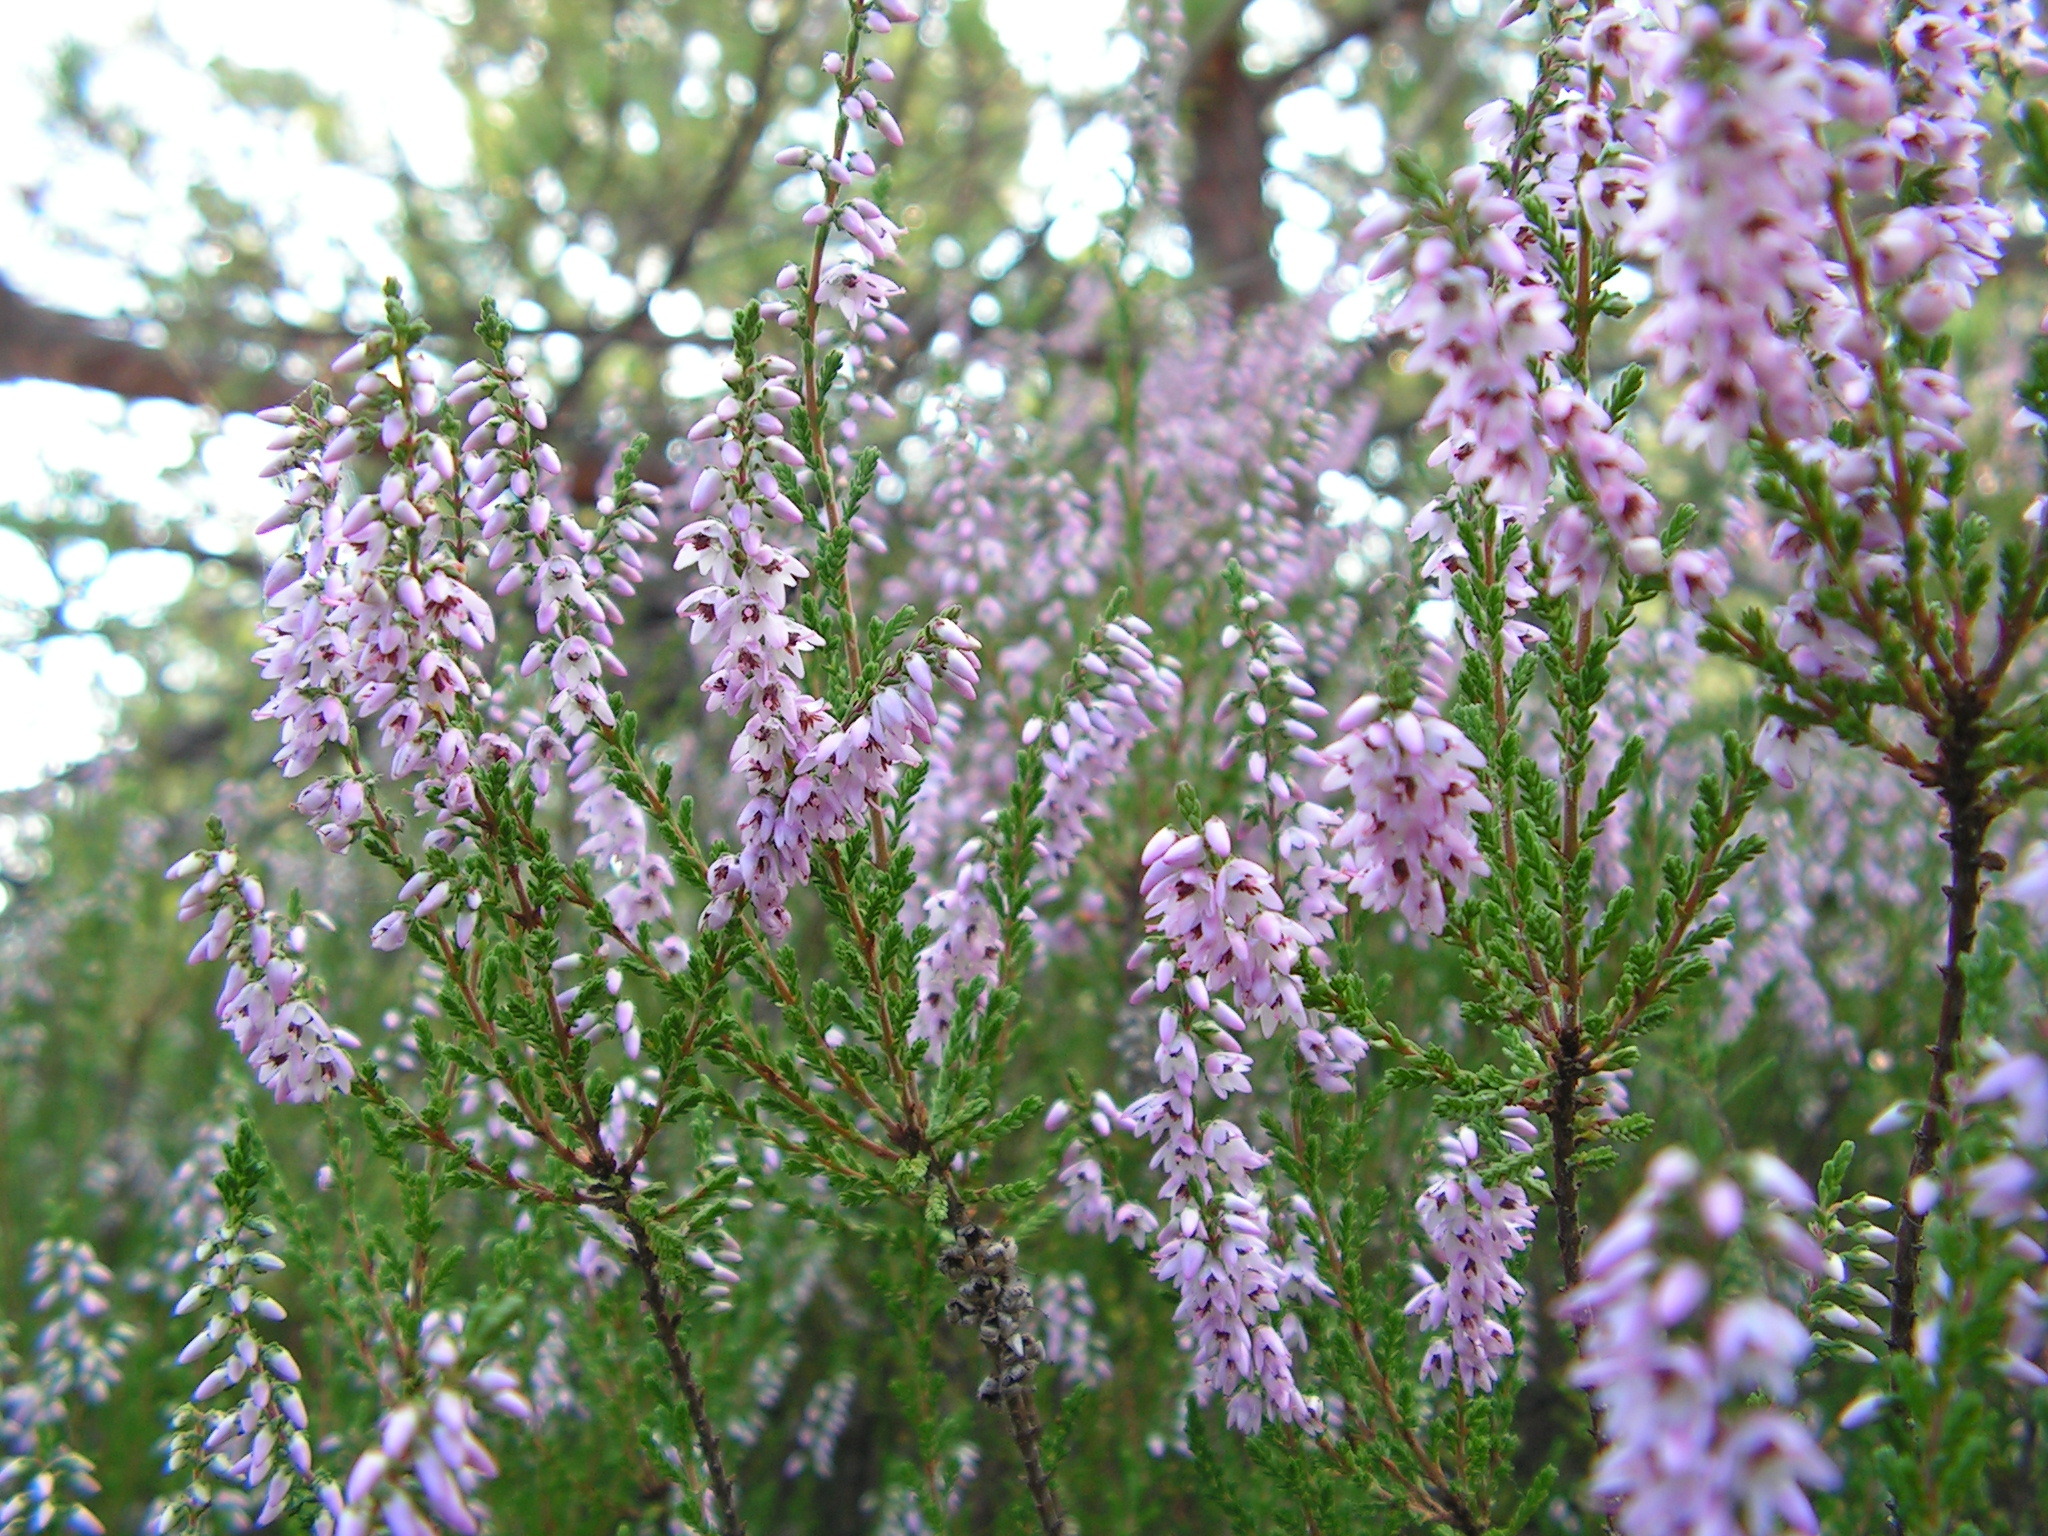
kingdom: Plantae
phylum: Tracheophyta
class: Magnoliopsida
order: Ericales
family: Ericaceae
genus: Calluna
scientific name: Calluna vulgaris
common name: Heather
